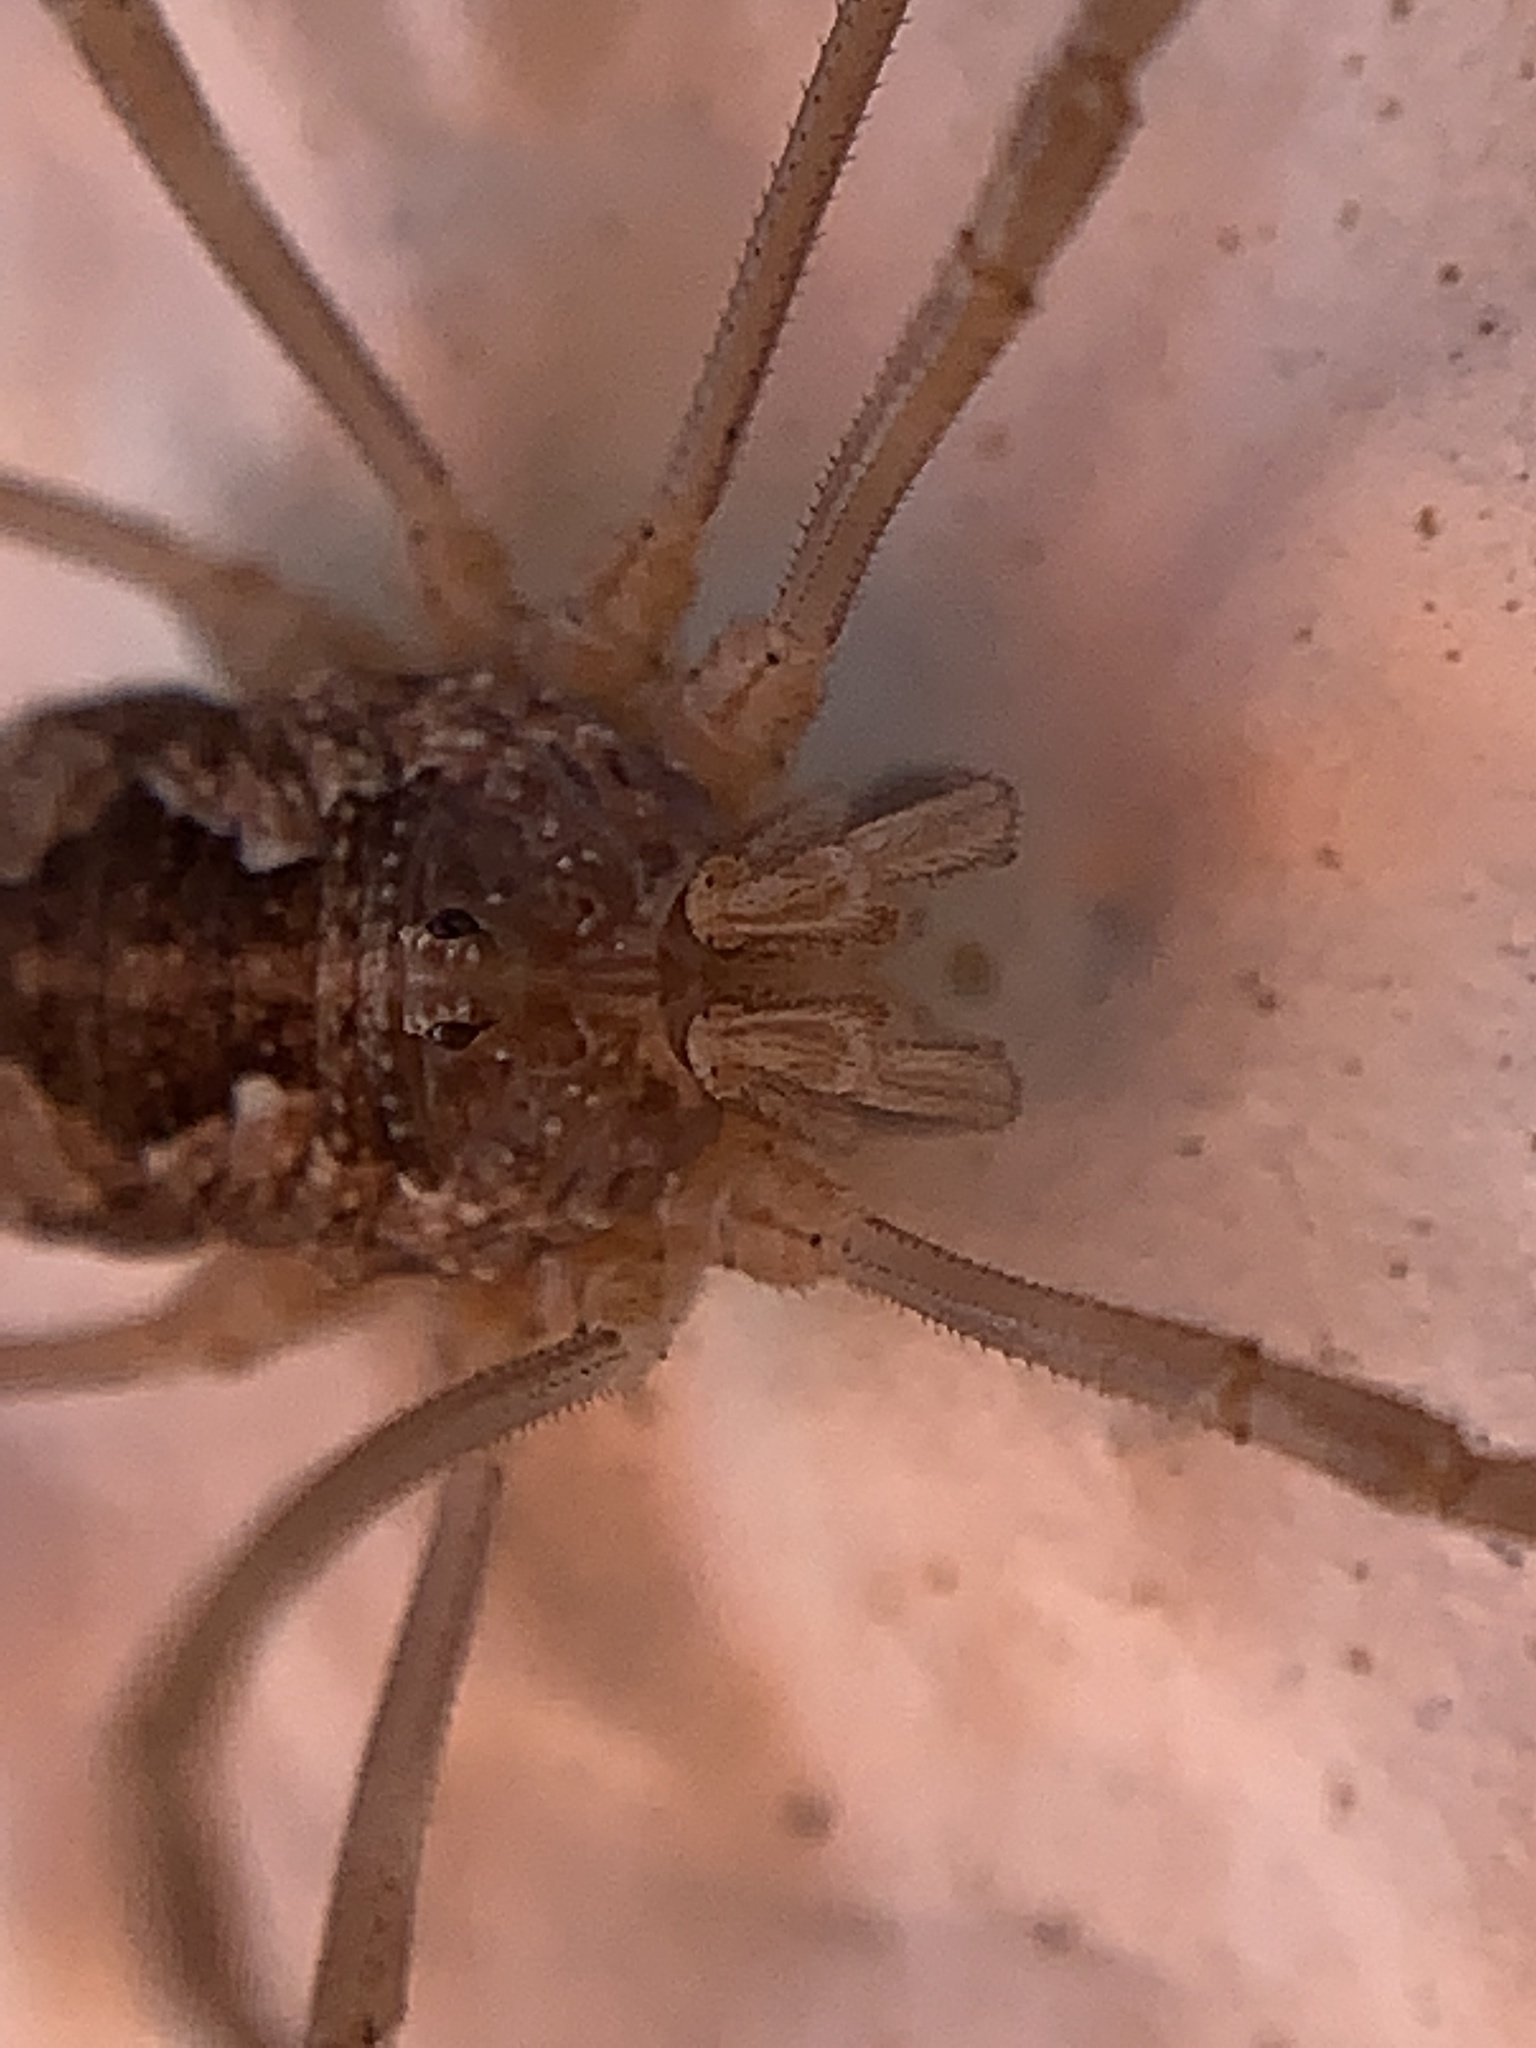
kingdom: Animalia
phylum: Arthropoda
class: Arachnida
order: Opiliones
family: Phalangiidae
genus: Phalangium
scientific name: Phalangium opilio
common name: Daddy longleg
